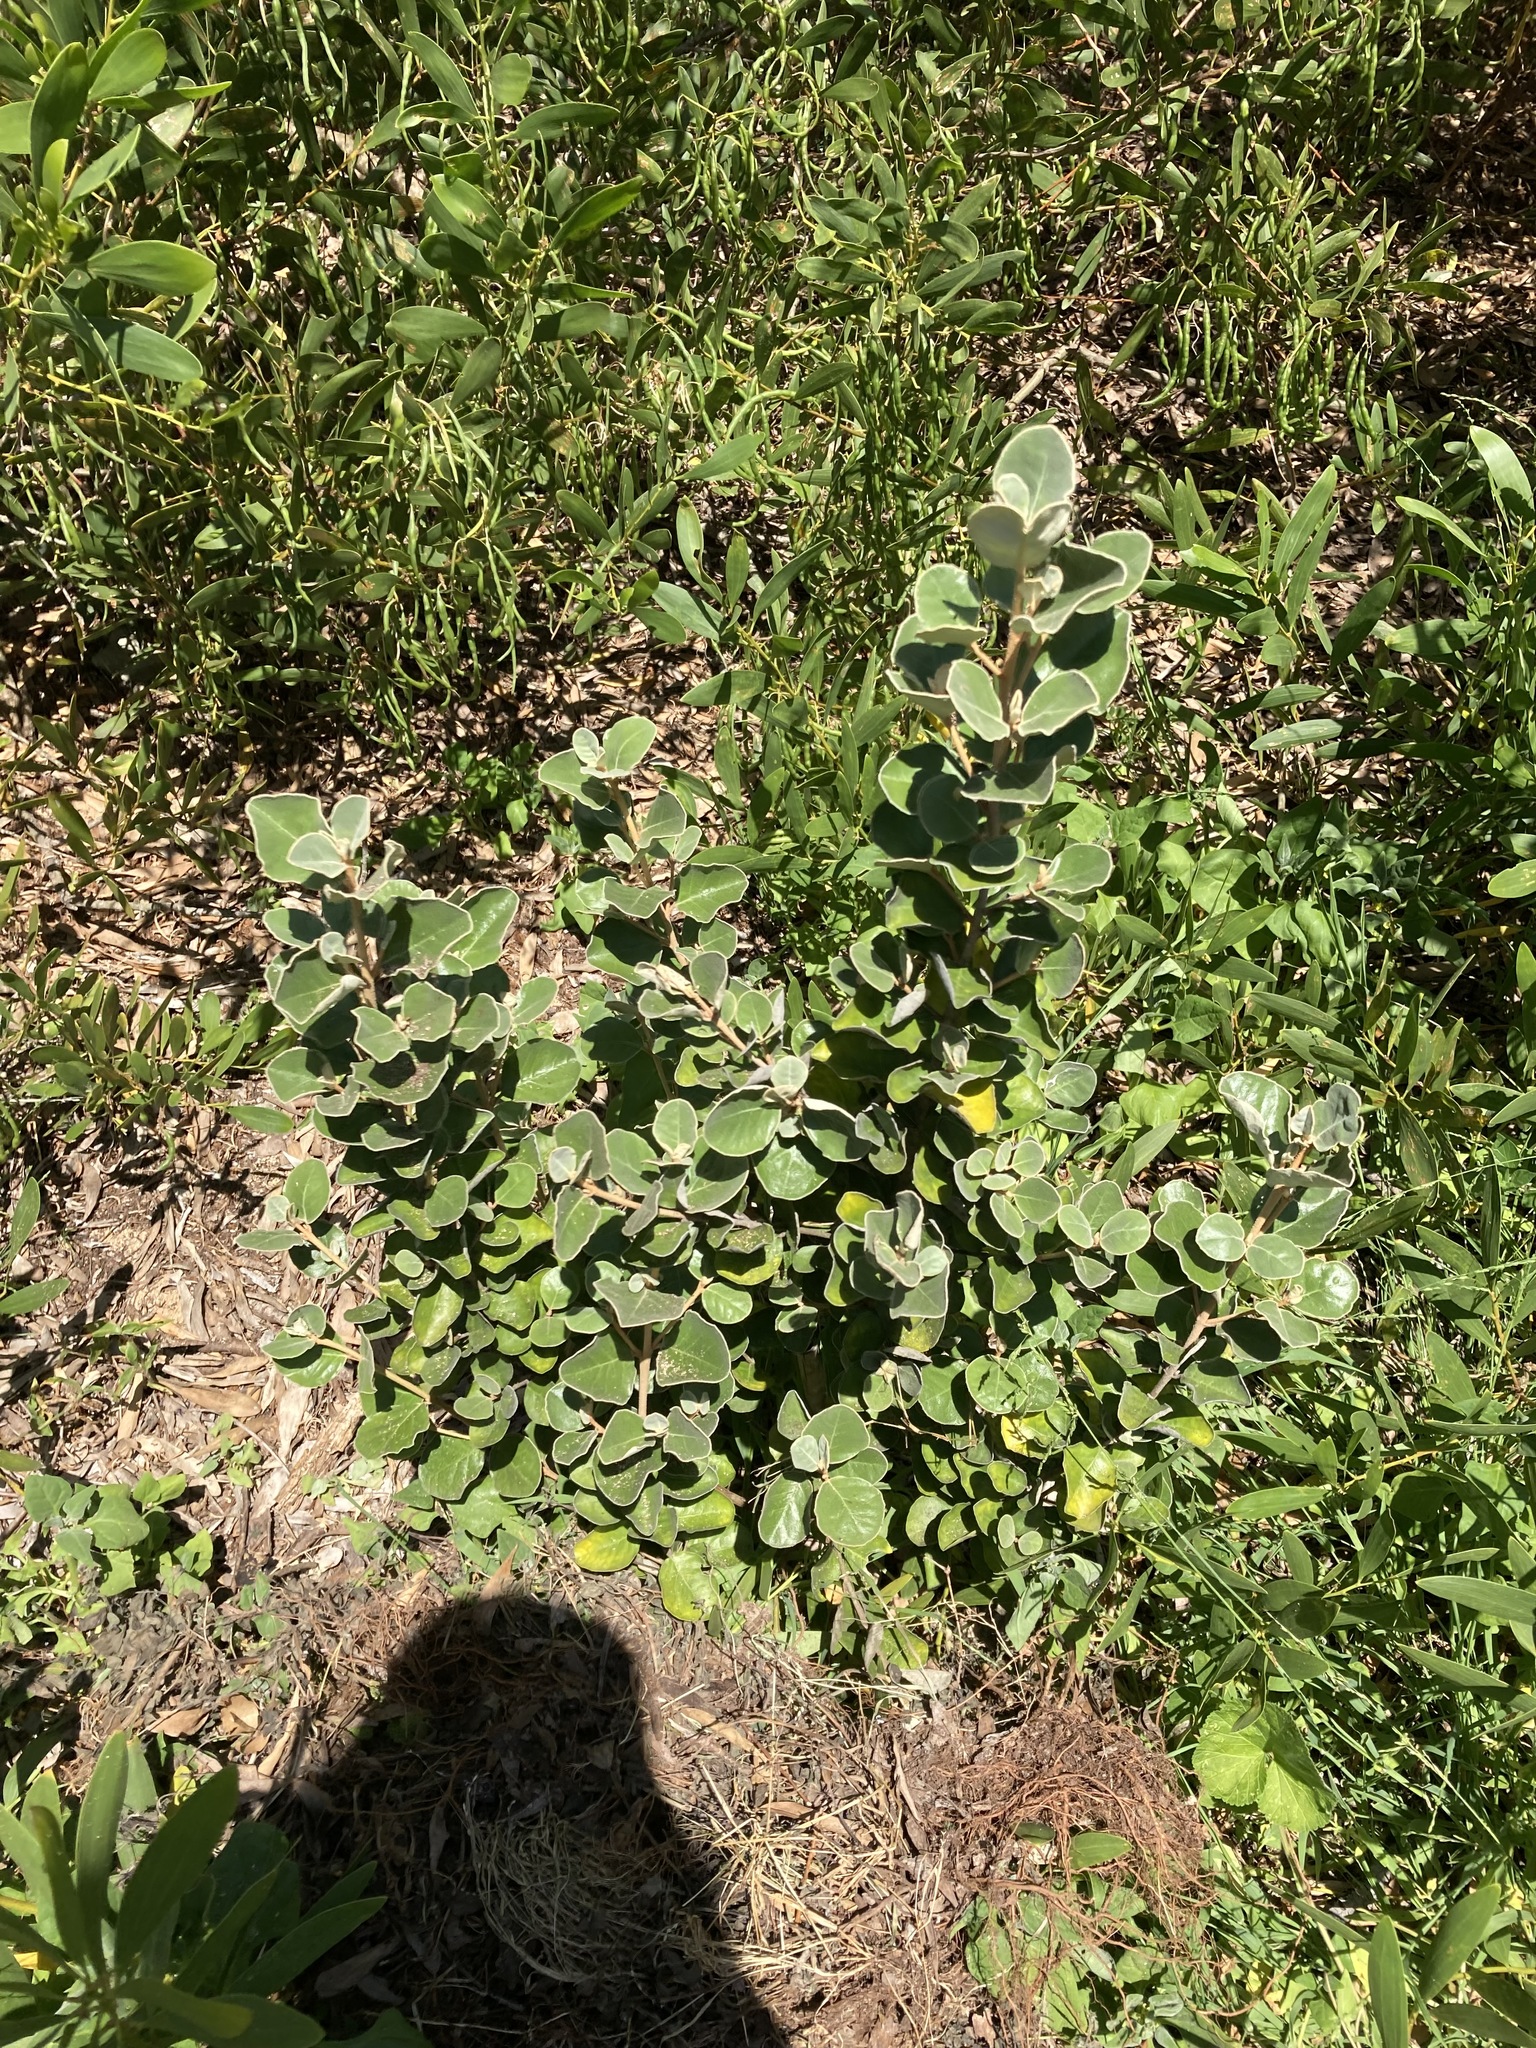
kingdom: Plantae
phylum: Tracheophyta
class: Magnoliopsida
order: Sapindales
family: Rutaceae
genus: Correa
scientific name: Correa alba
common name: White correa
